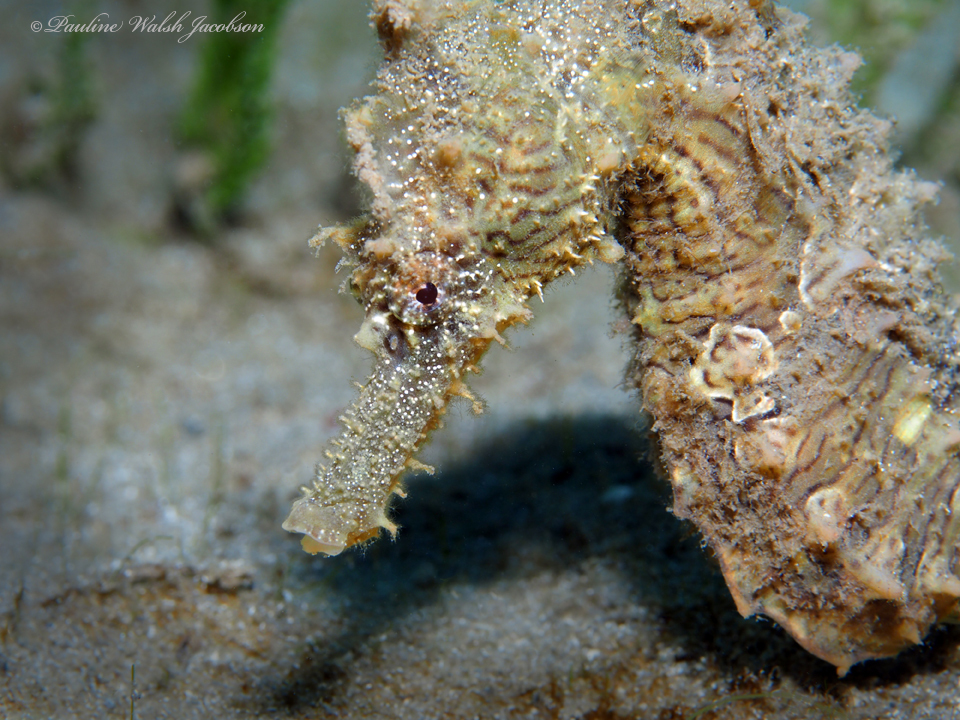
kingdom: Animalia
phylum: Chordata
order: Syngnathiformes
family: Syngnathidae
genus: Hippocampus
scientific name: Hippocampus erectus
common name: Lined seahorse
